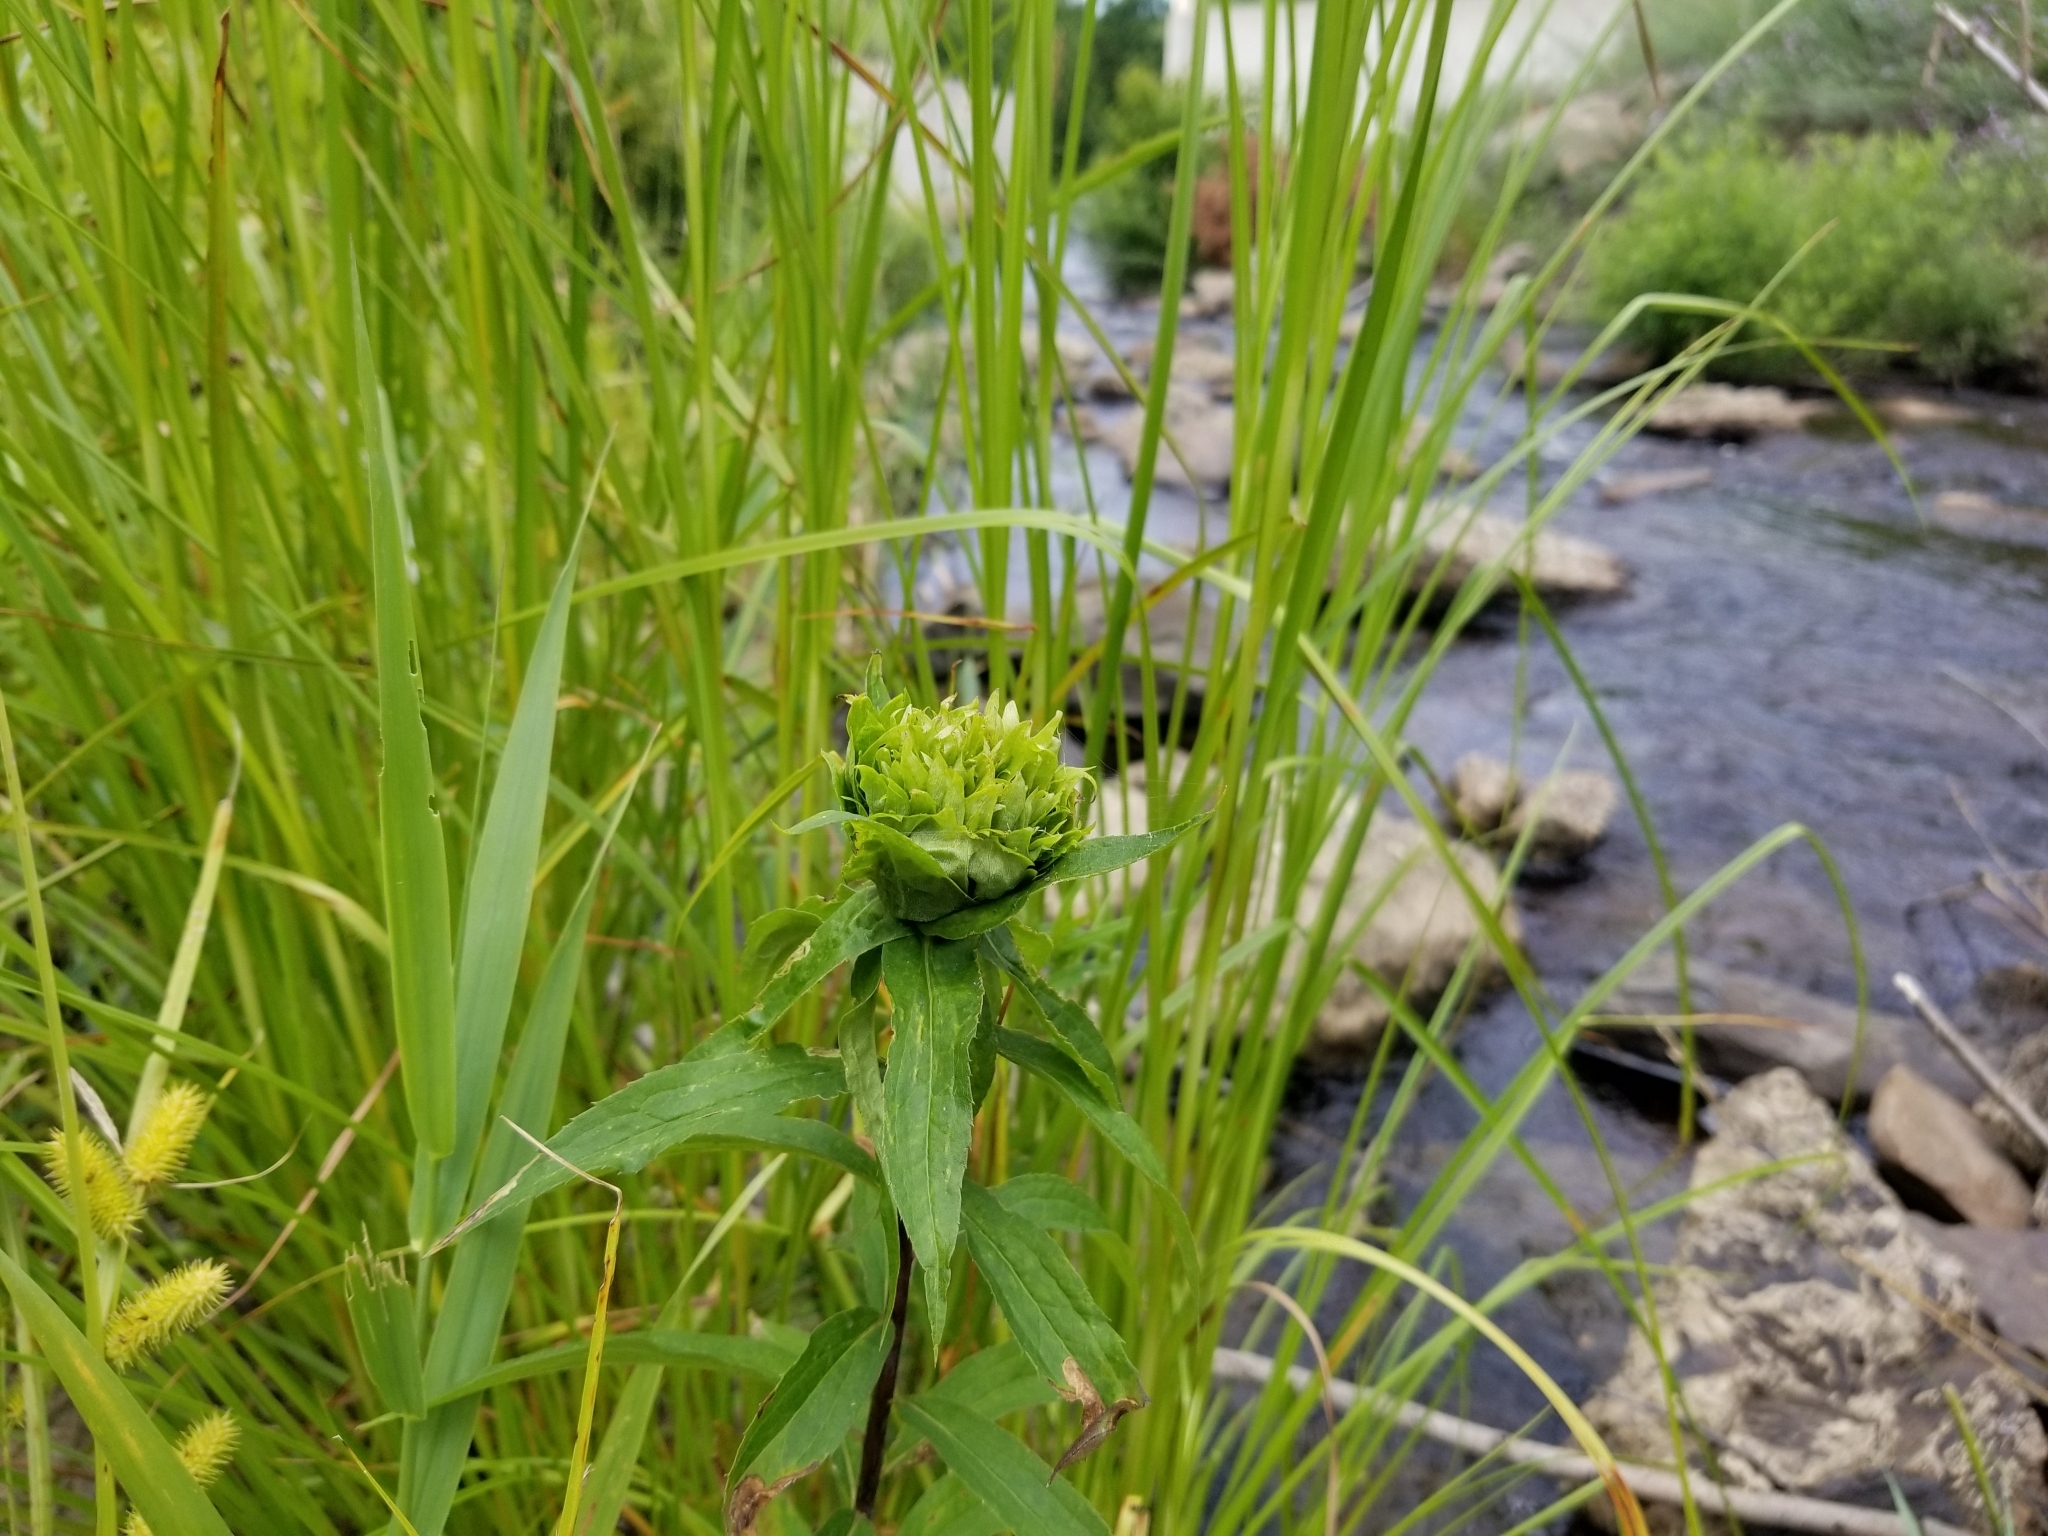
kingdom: Animalia
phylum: Arthropoda
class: Insecta
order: Diptera
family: Cecidomyiidae
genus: Rhopalomyia
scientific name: Rhopalomyia capitata
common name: Giant goldenrod bunch gall midge
